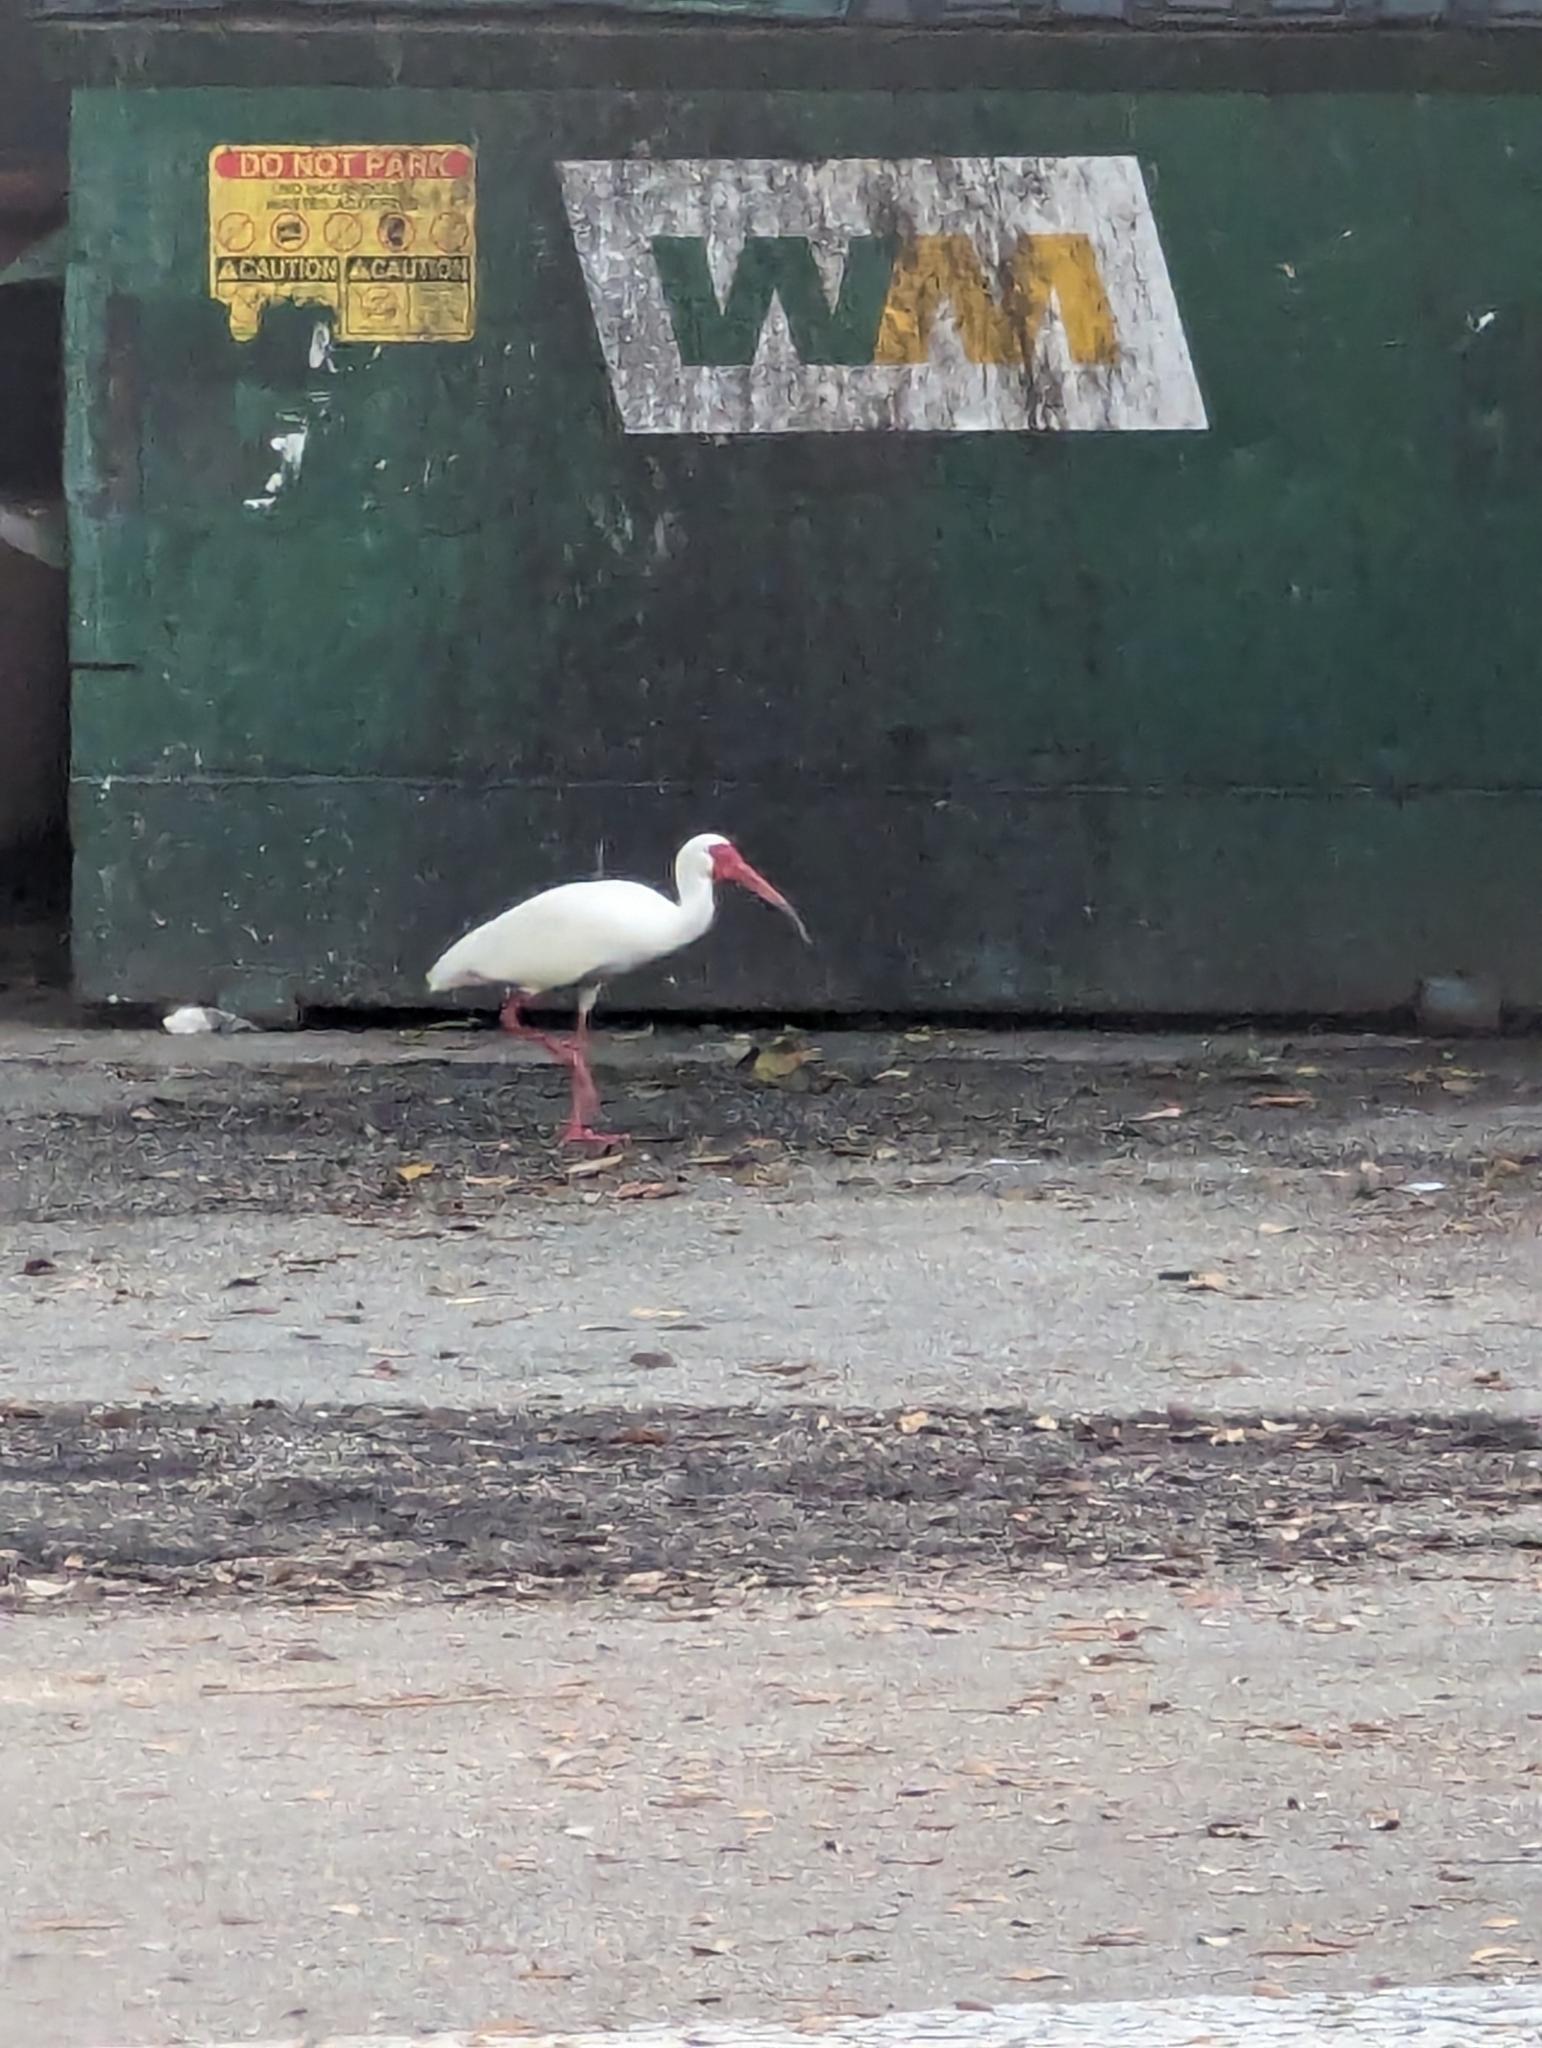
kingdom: Animalia
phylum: Chordata
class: Aves
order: Pelecaniformes
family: Threskiornithidae
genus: Eudocimus
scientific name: Eudocimus albus
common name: White ibis
